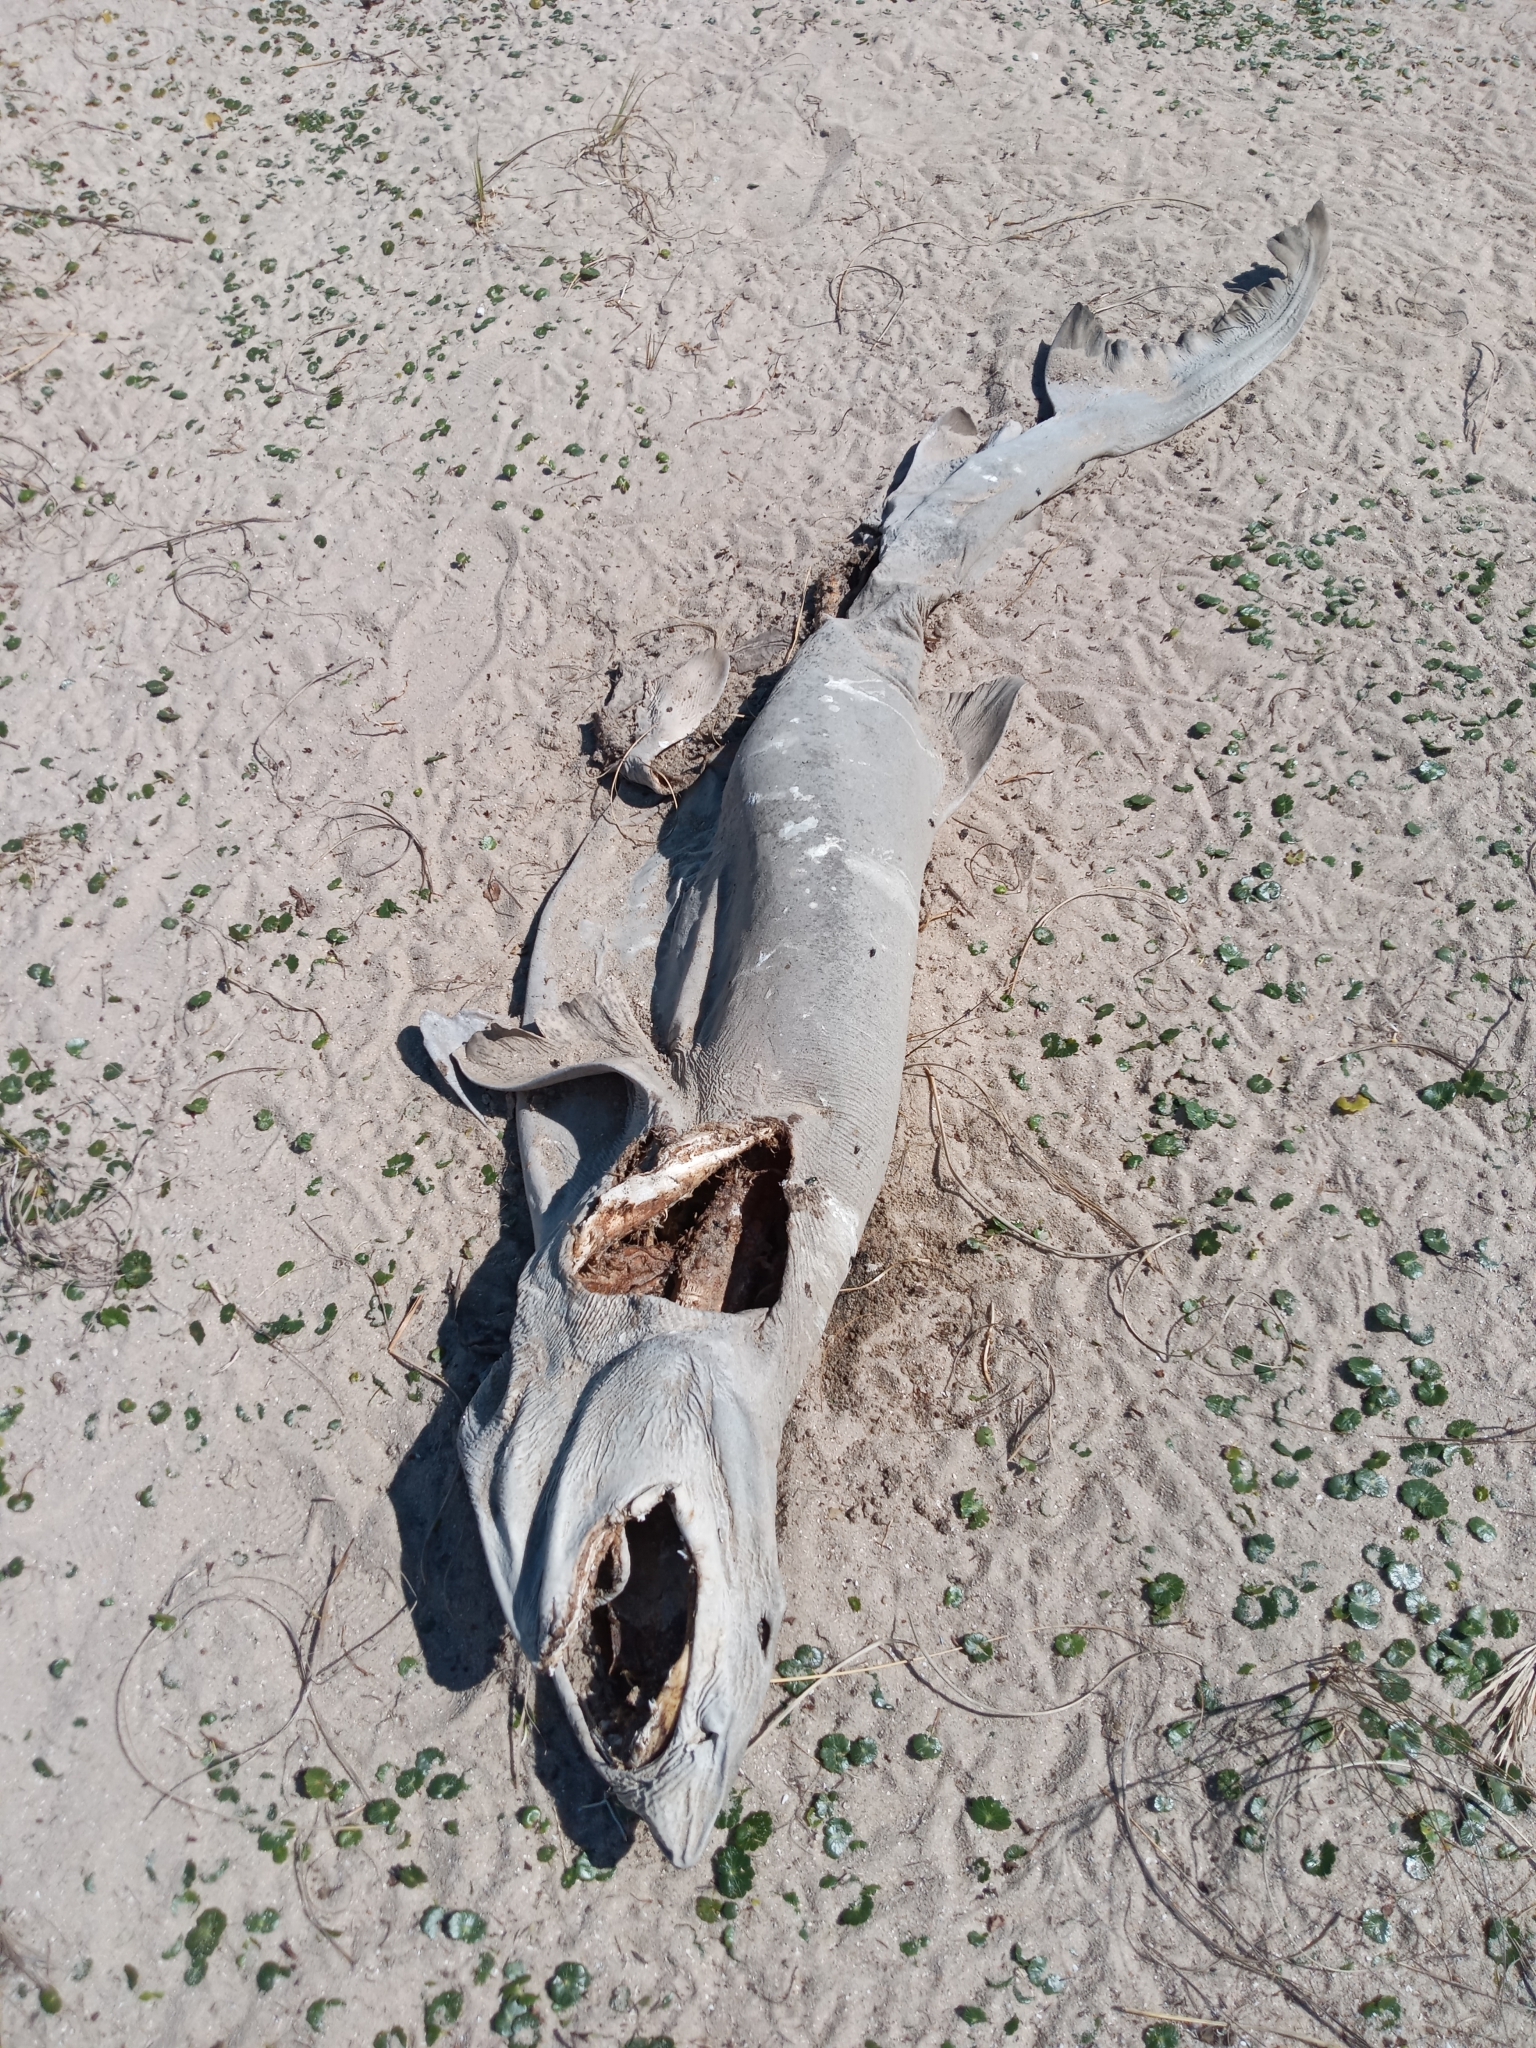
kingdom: Animalia
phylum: Chordata
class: Elasmobranchii
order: Lamniformes
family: Odontaspididae
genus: Carcharias
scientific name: Carcharias taurus
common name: Sand shark
